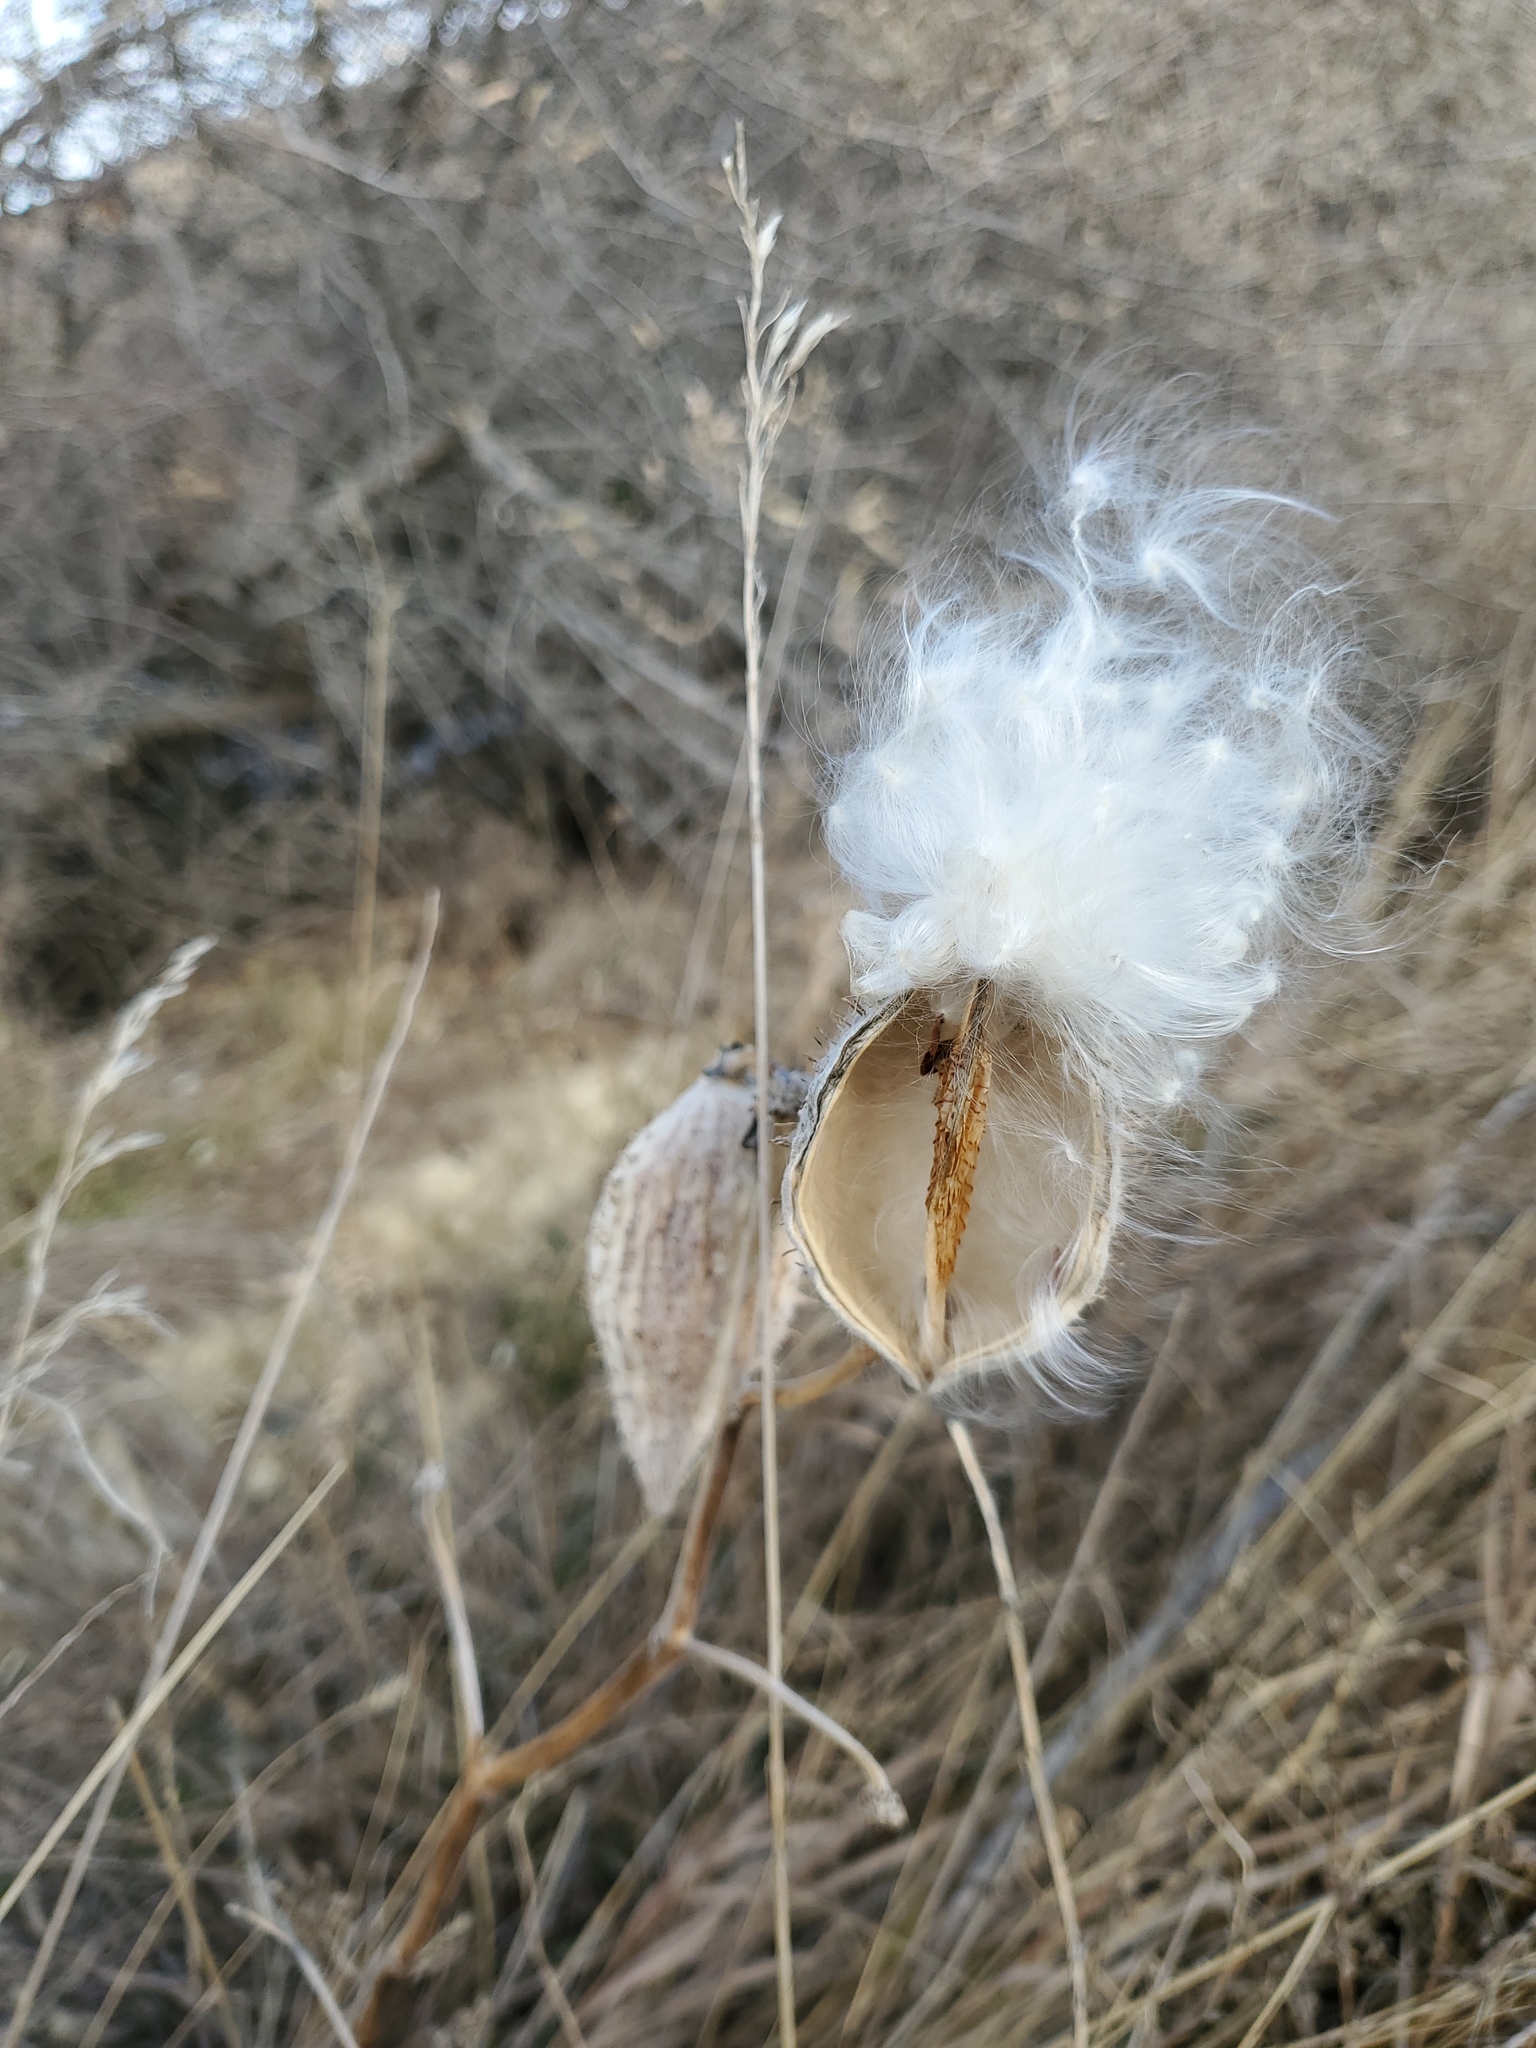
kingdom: Plantae
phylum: Tracheophyta
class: Magnoliopsida
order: Gentianales
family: Apocynaceae
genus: Asclepias
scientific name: Asclepias speciosa
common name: Showy milkweed
